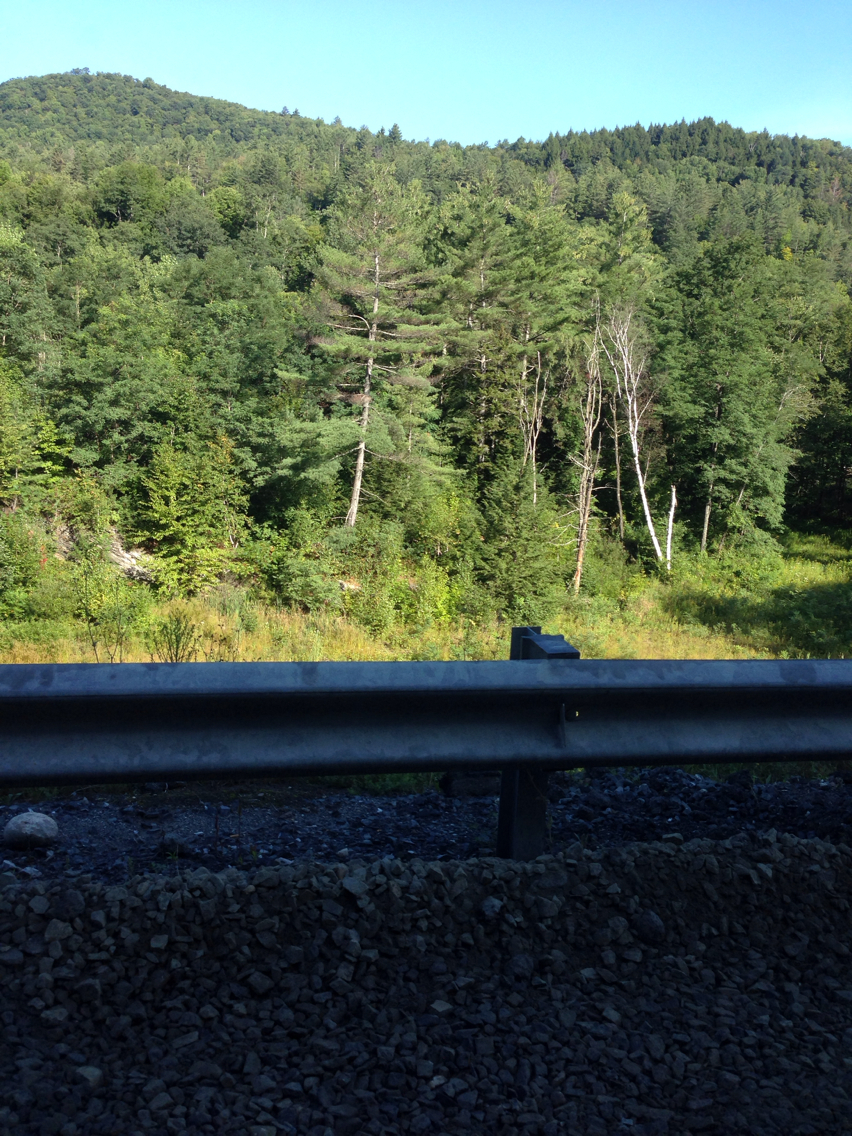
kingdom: Plantae
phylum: Tracheophyta
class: Pinopsida
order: Pinales
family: Pinaceae
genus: Pinus
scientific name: Pinus strobus
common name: Weymouth pine
